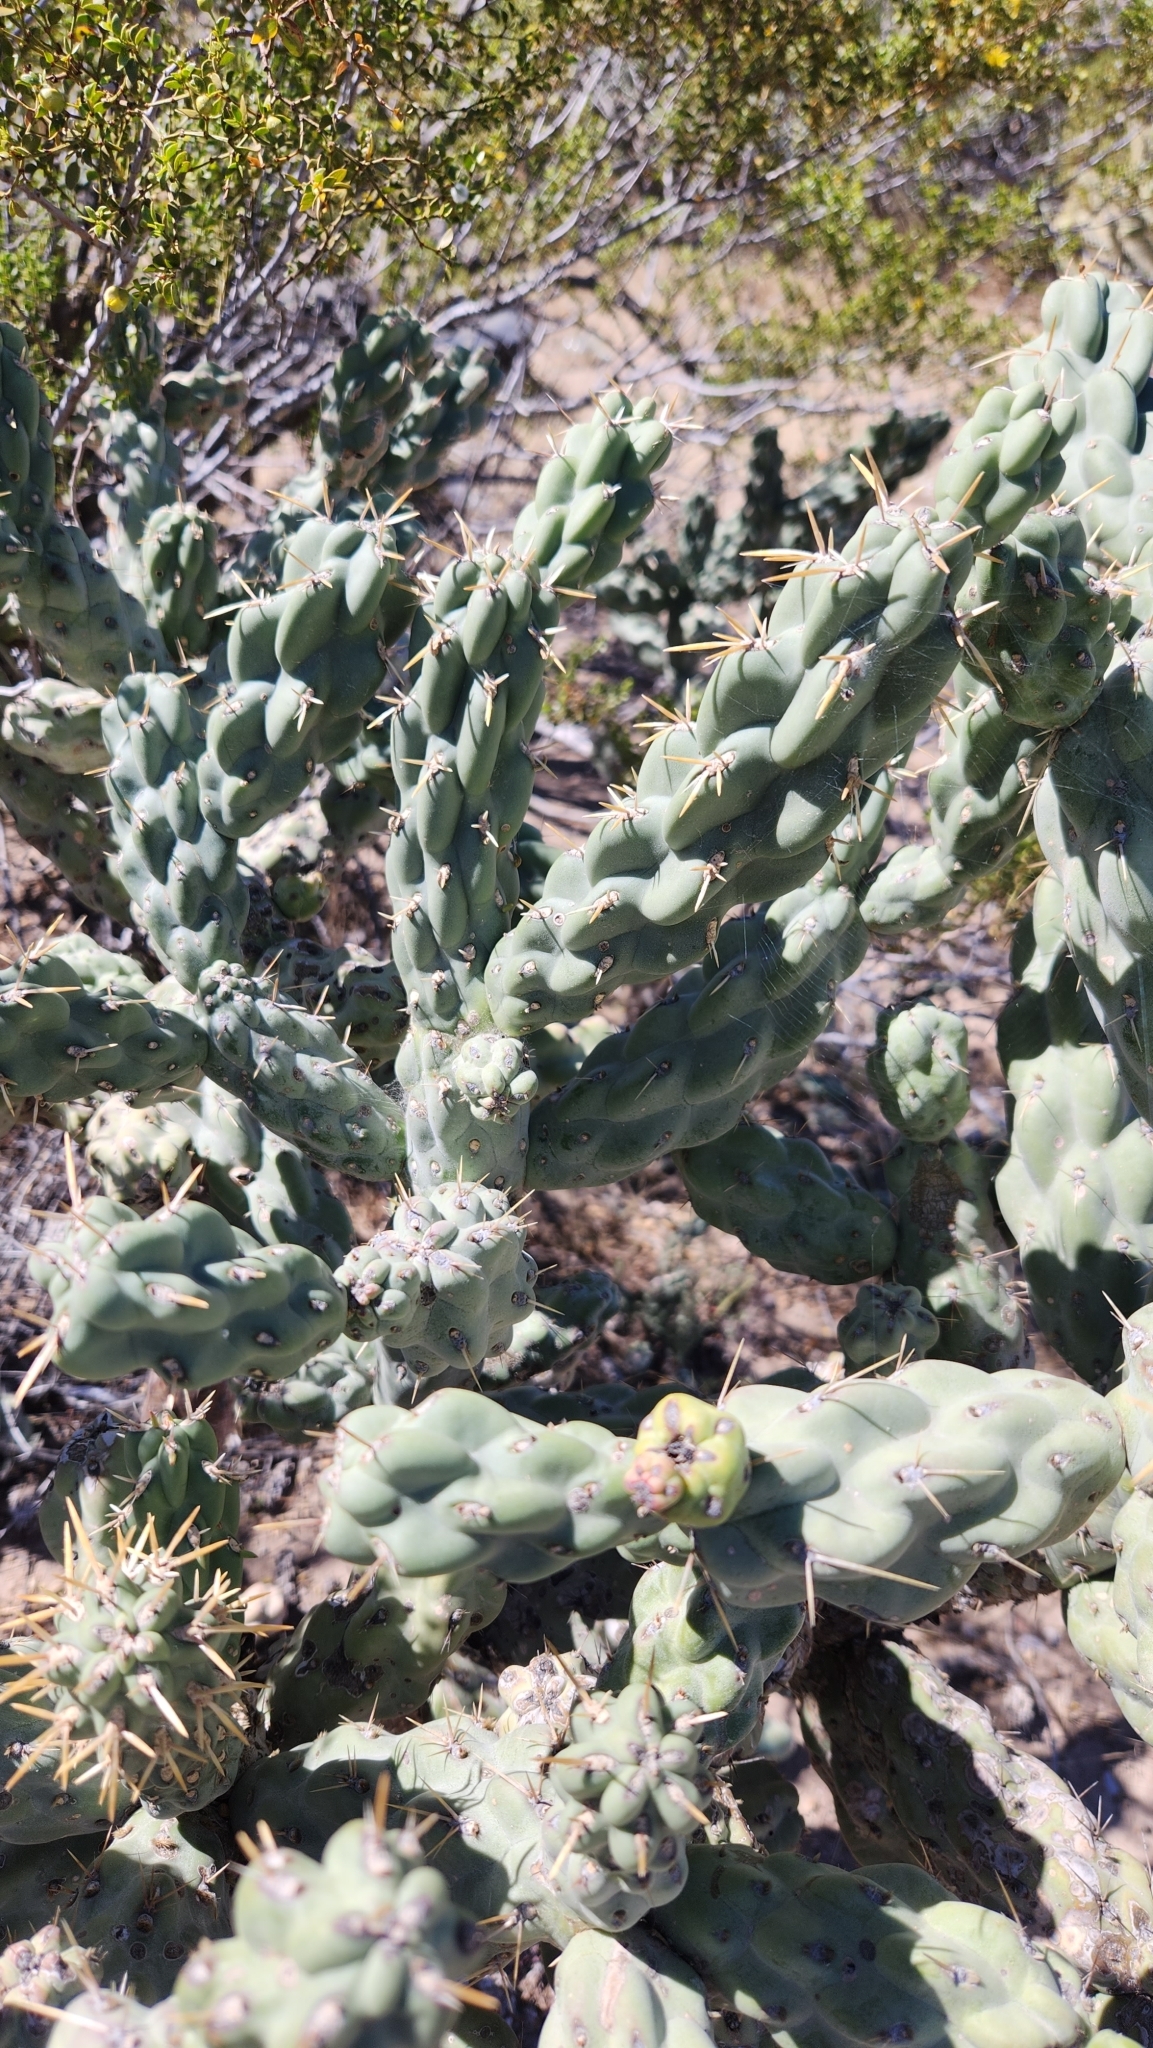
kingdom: Plantae
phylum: Tracheophyta
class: Magnoliopsida
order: Caryophyllales
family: Cactaceae
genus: Cylindropuntia
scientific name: Cylindropuntia cholla
